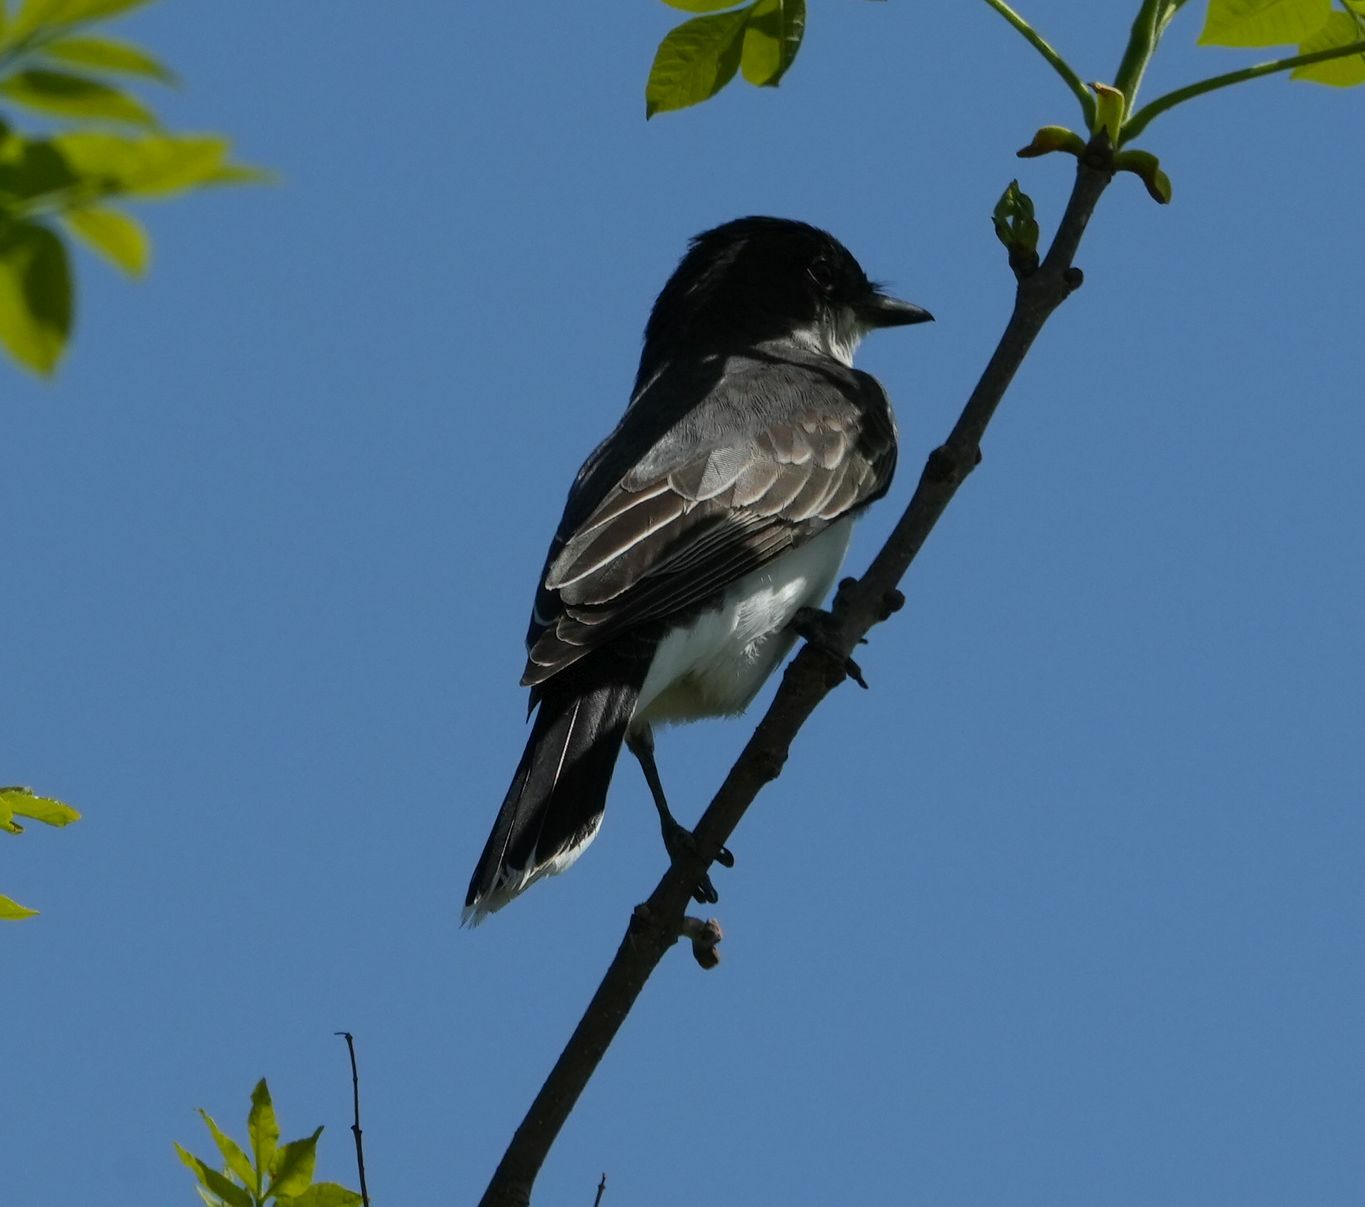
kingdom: Animalia
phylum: Chordata
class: Aves
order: Passeriformes
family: Tyrannidae
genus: Tyrannus
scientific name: Tyrannus tyrannus
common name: Eastern kingbird
